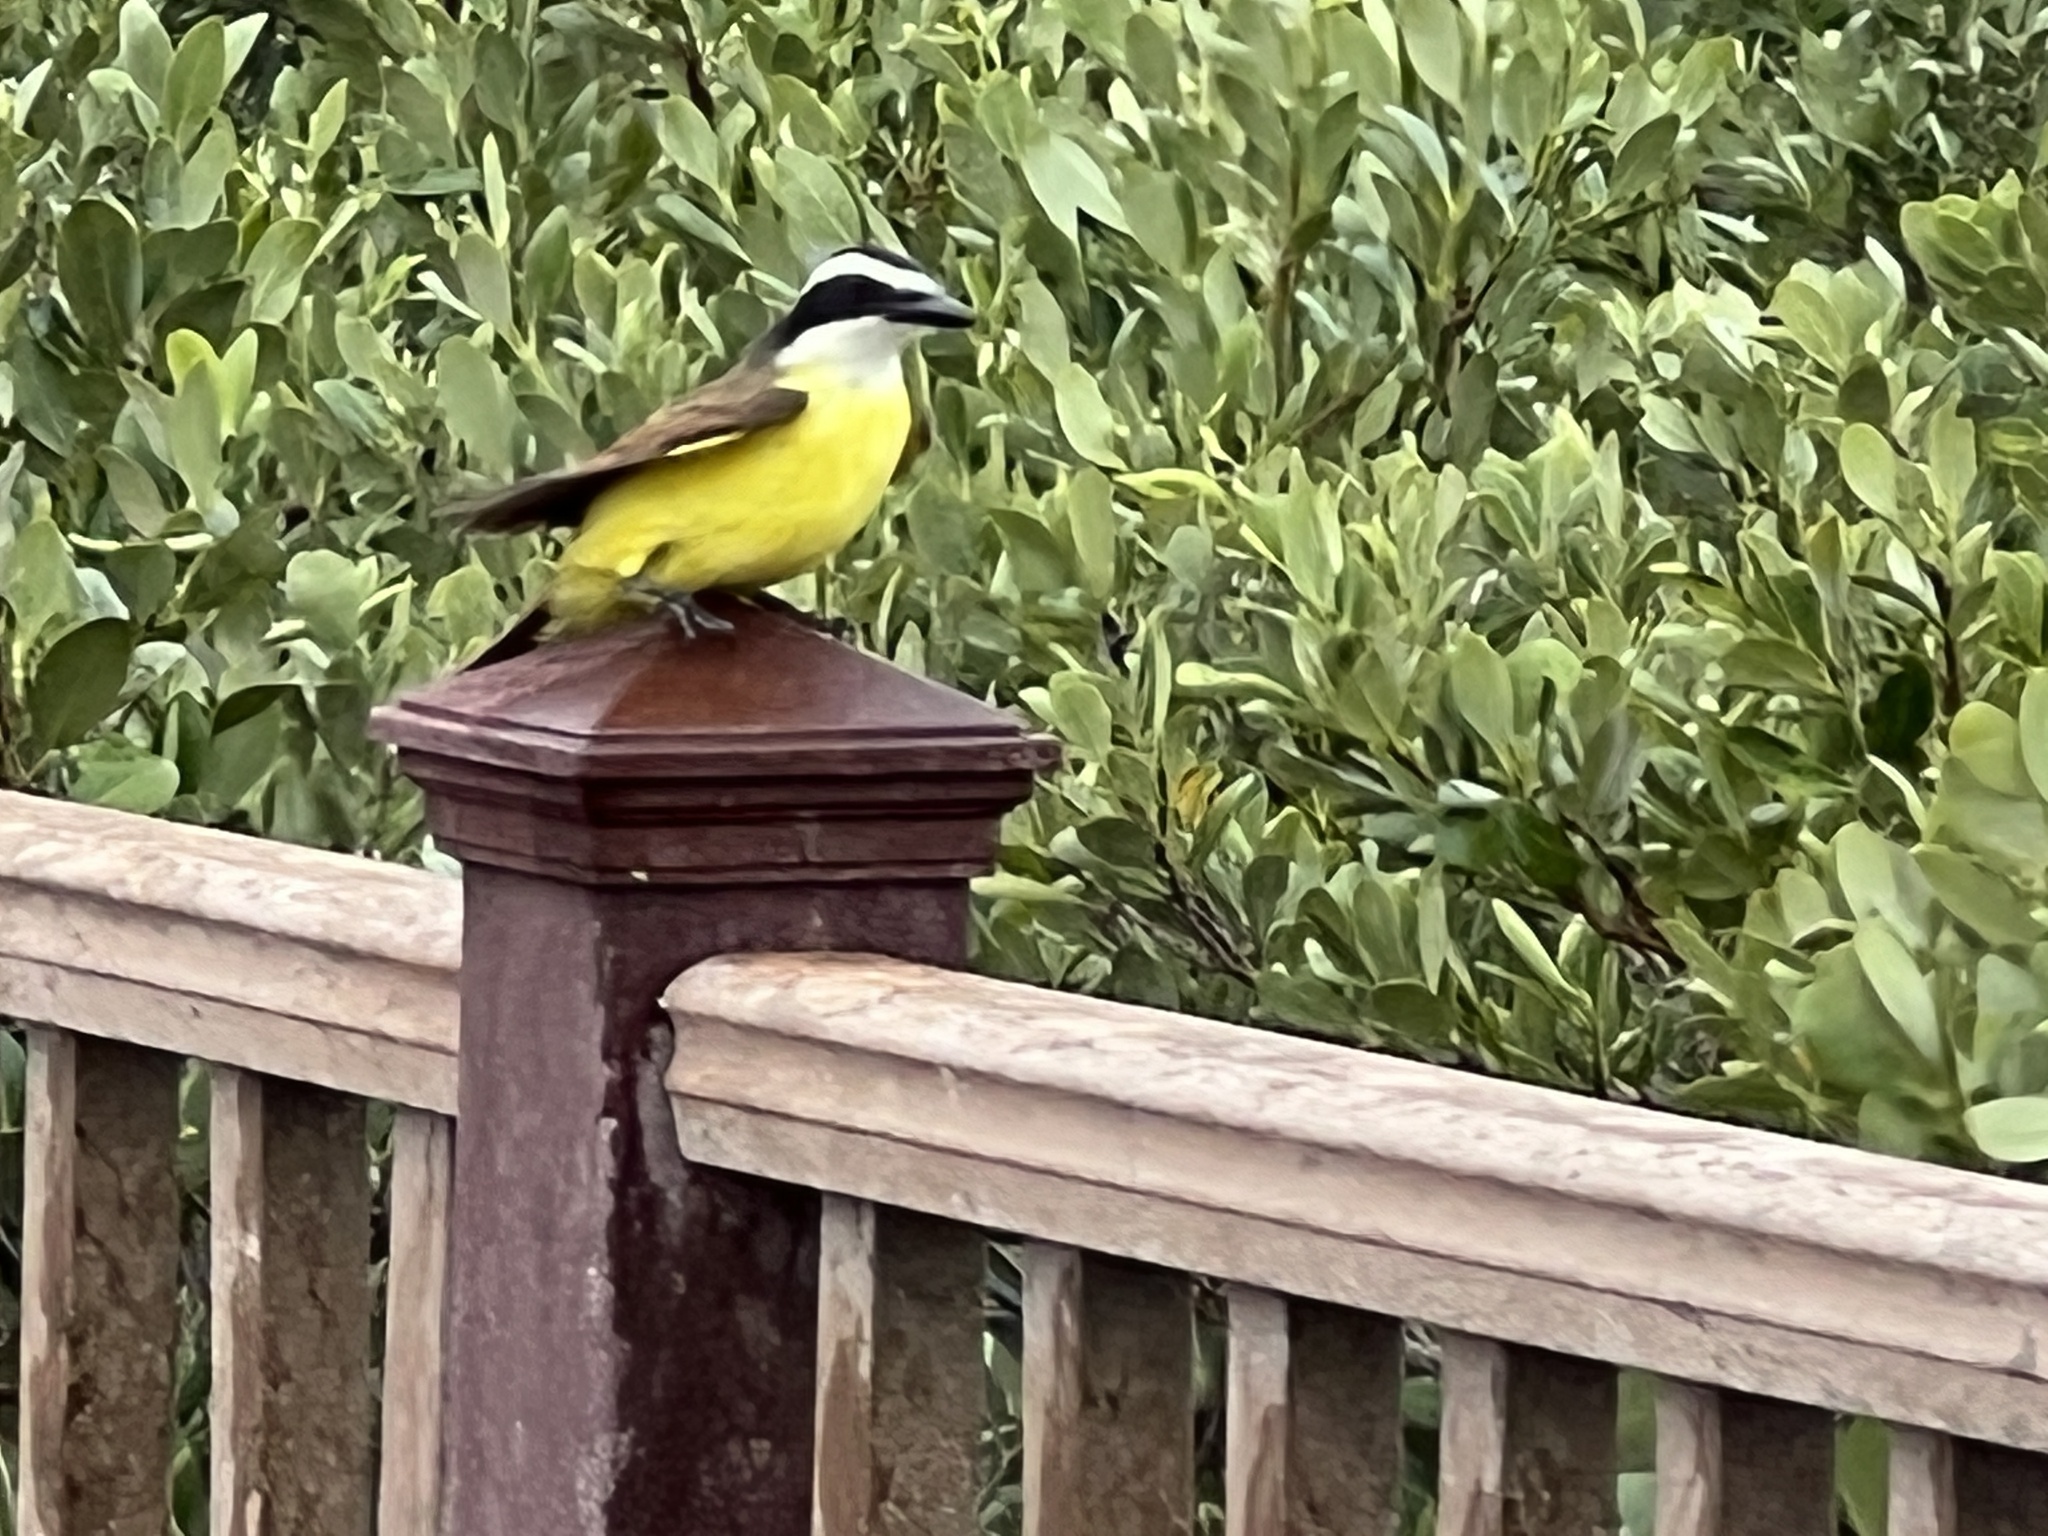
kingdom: Animalia
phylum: Chordata
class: Aves
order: Passeriformes
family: Tyrannidae
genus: Pitangus
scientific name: Pitangus sulphuratus
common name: Great kiskadee
